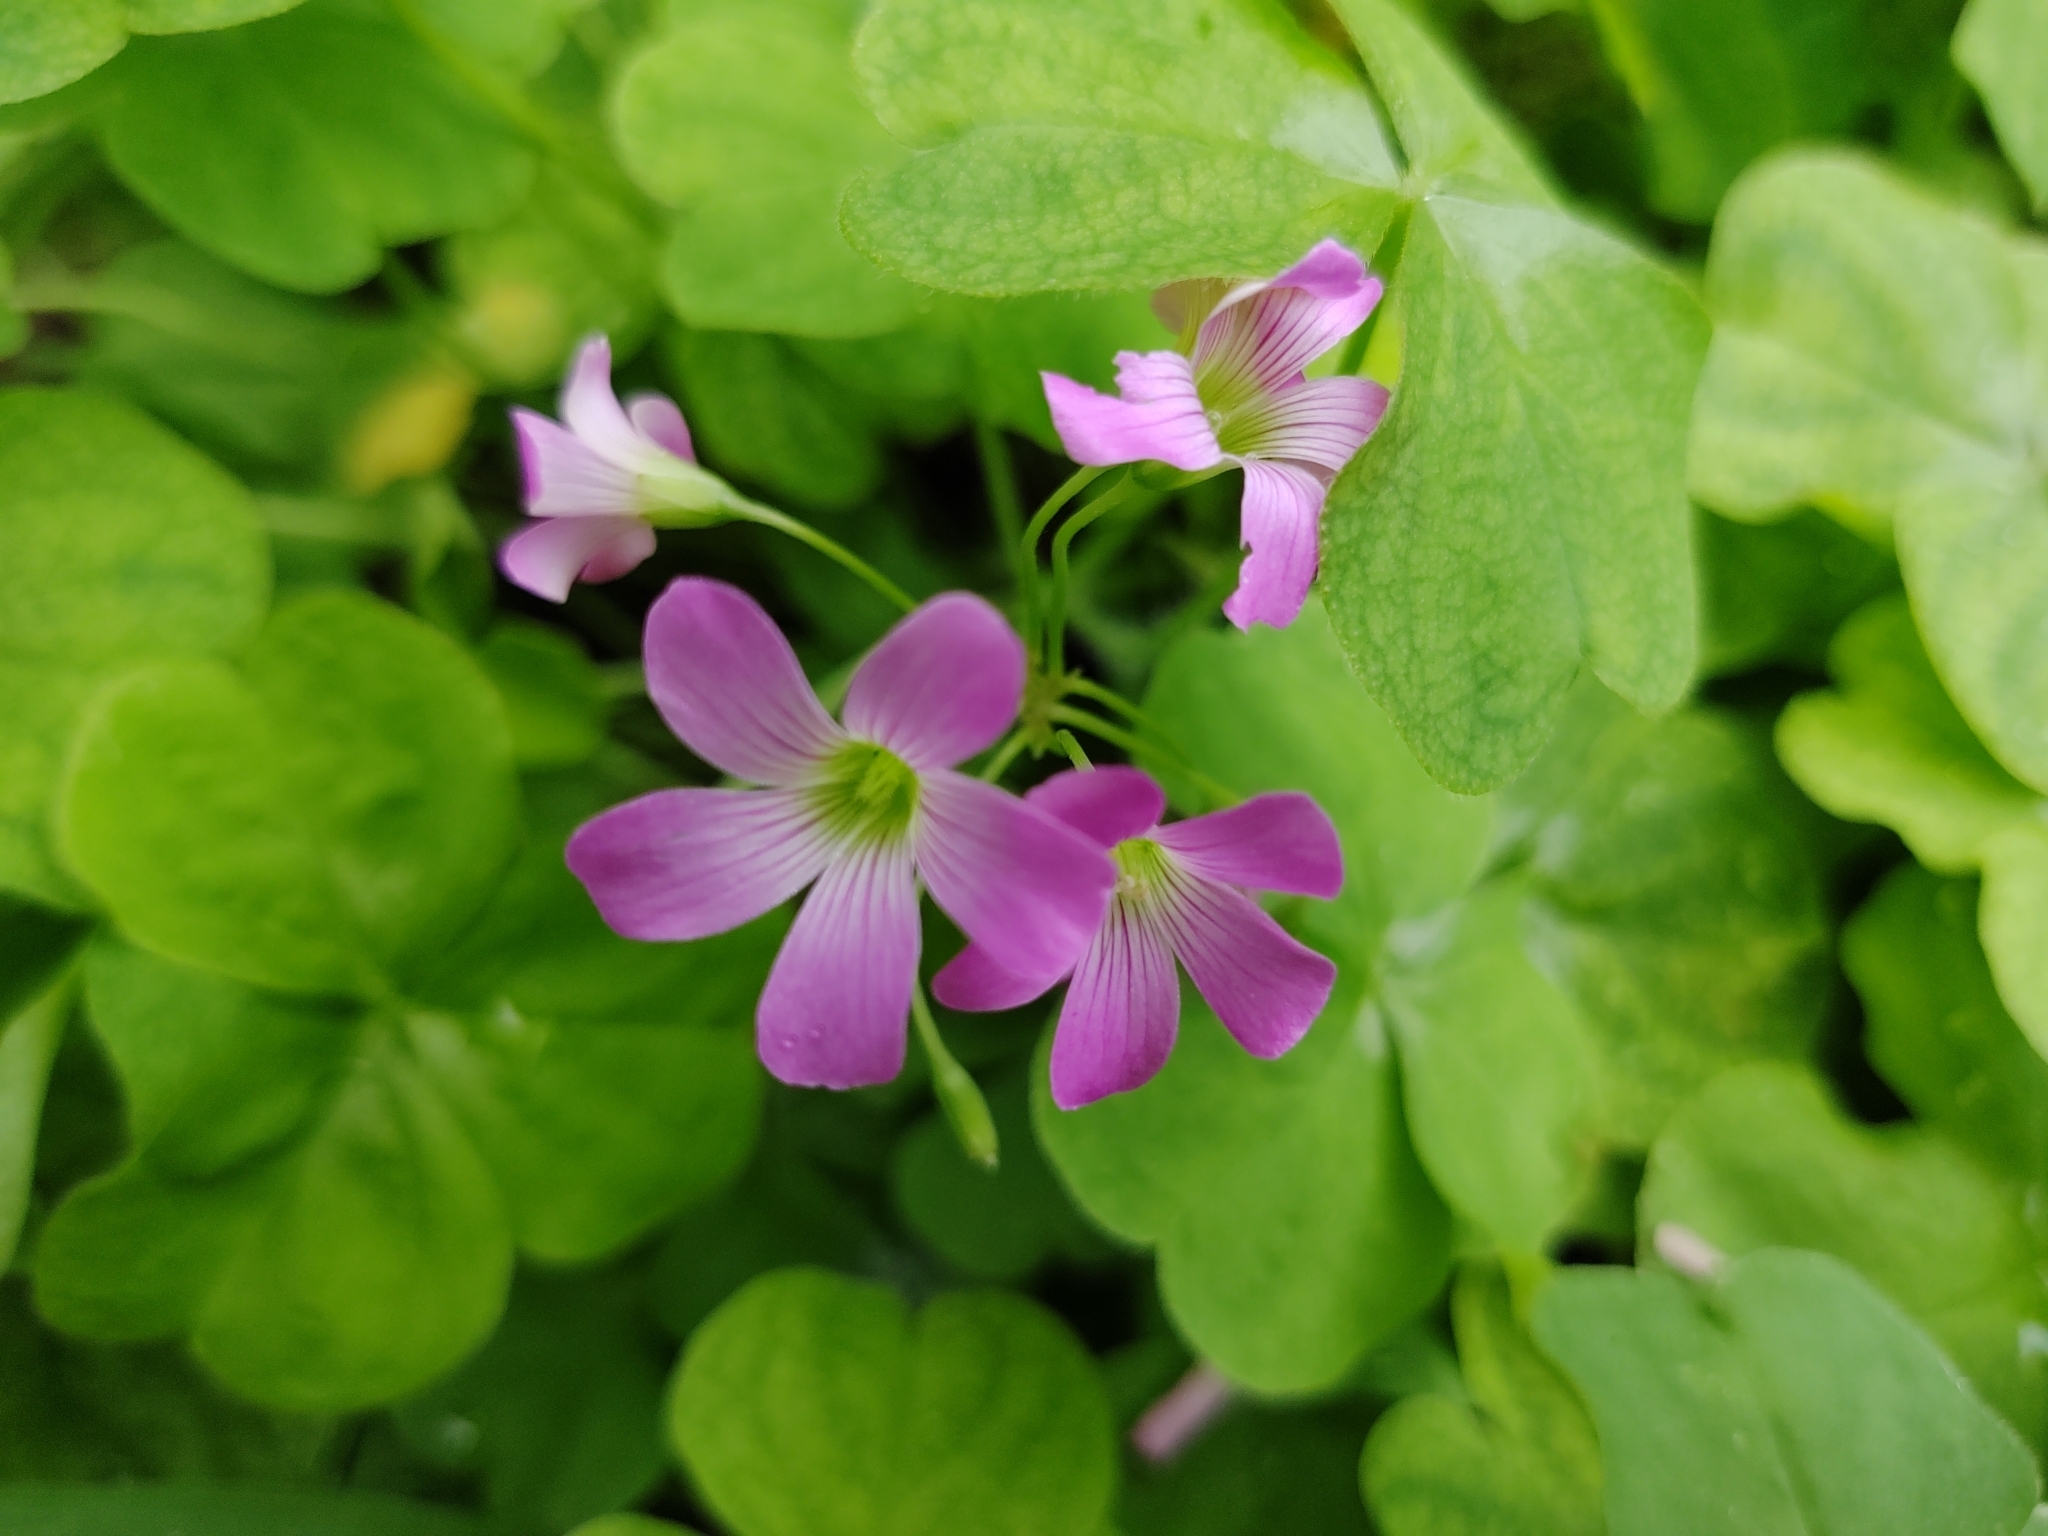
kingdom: Plantae
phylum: Tracheophyta
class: Magnoliopsida
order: Oxalidales
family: Oxalidaceae
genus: Oxalis
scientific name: Oxalis debilis
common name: Large-flowered pink-sorrel
